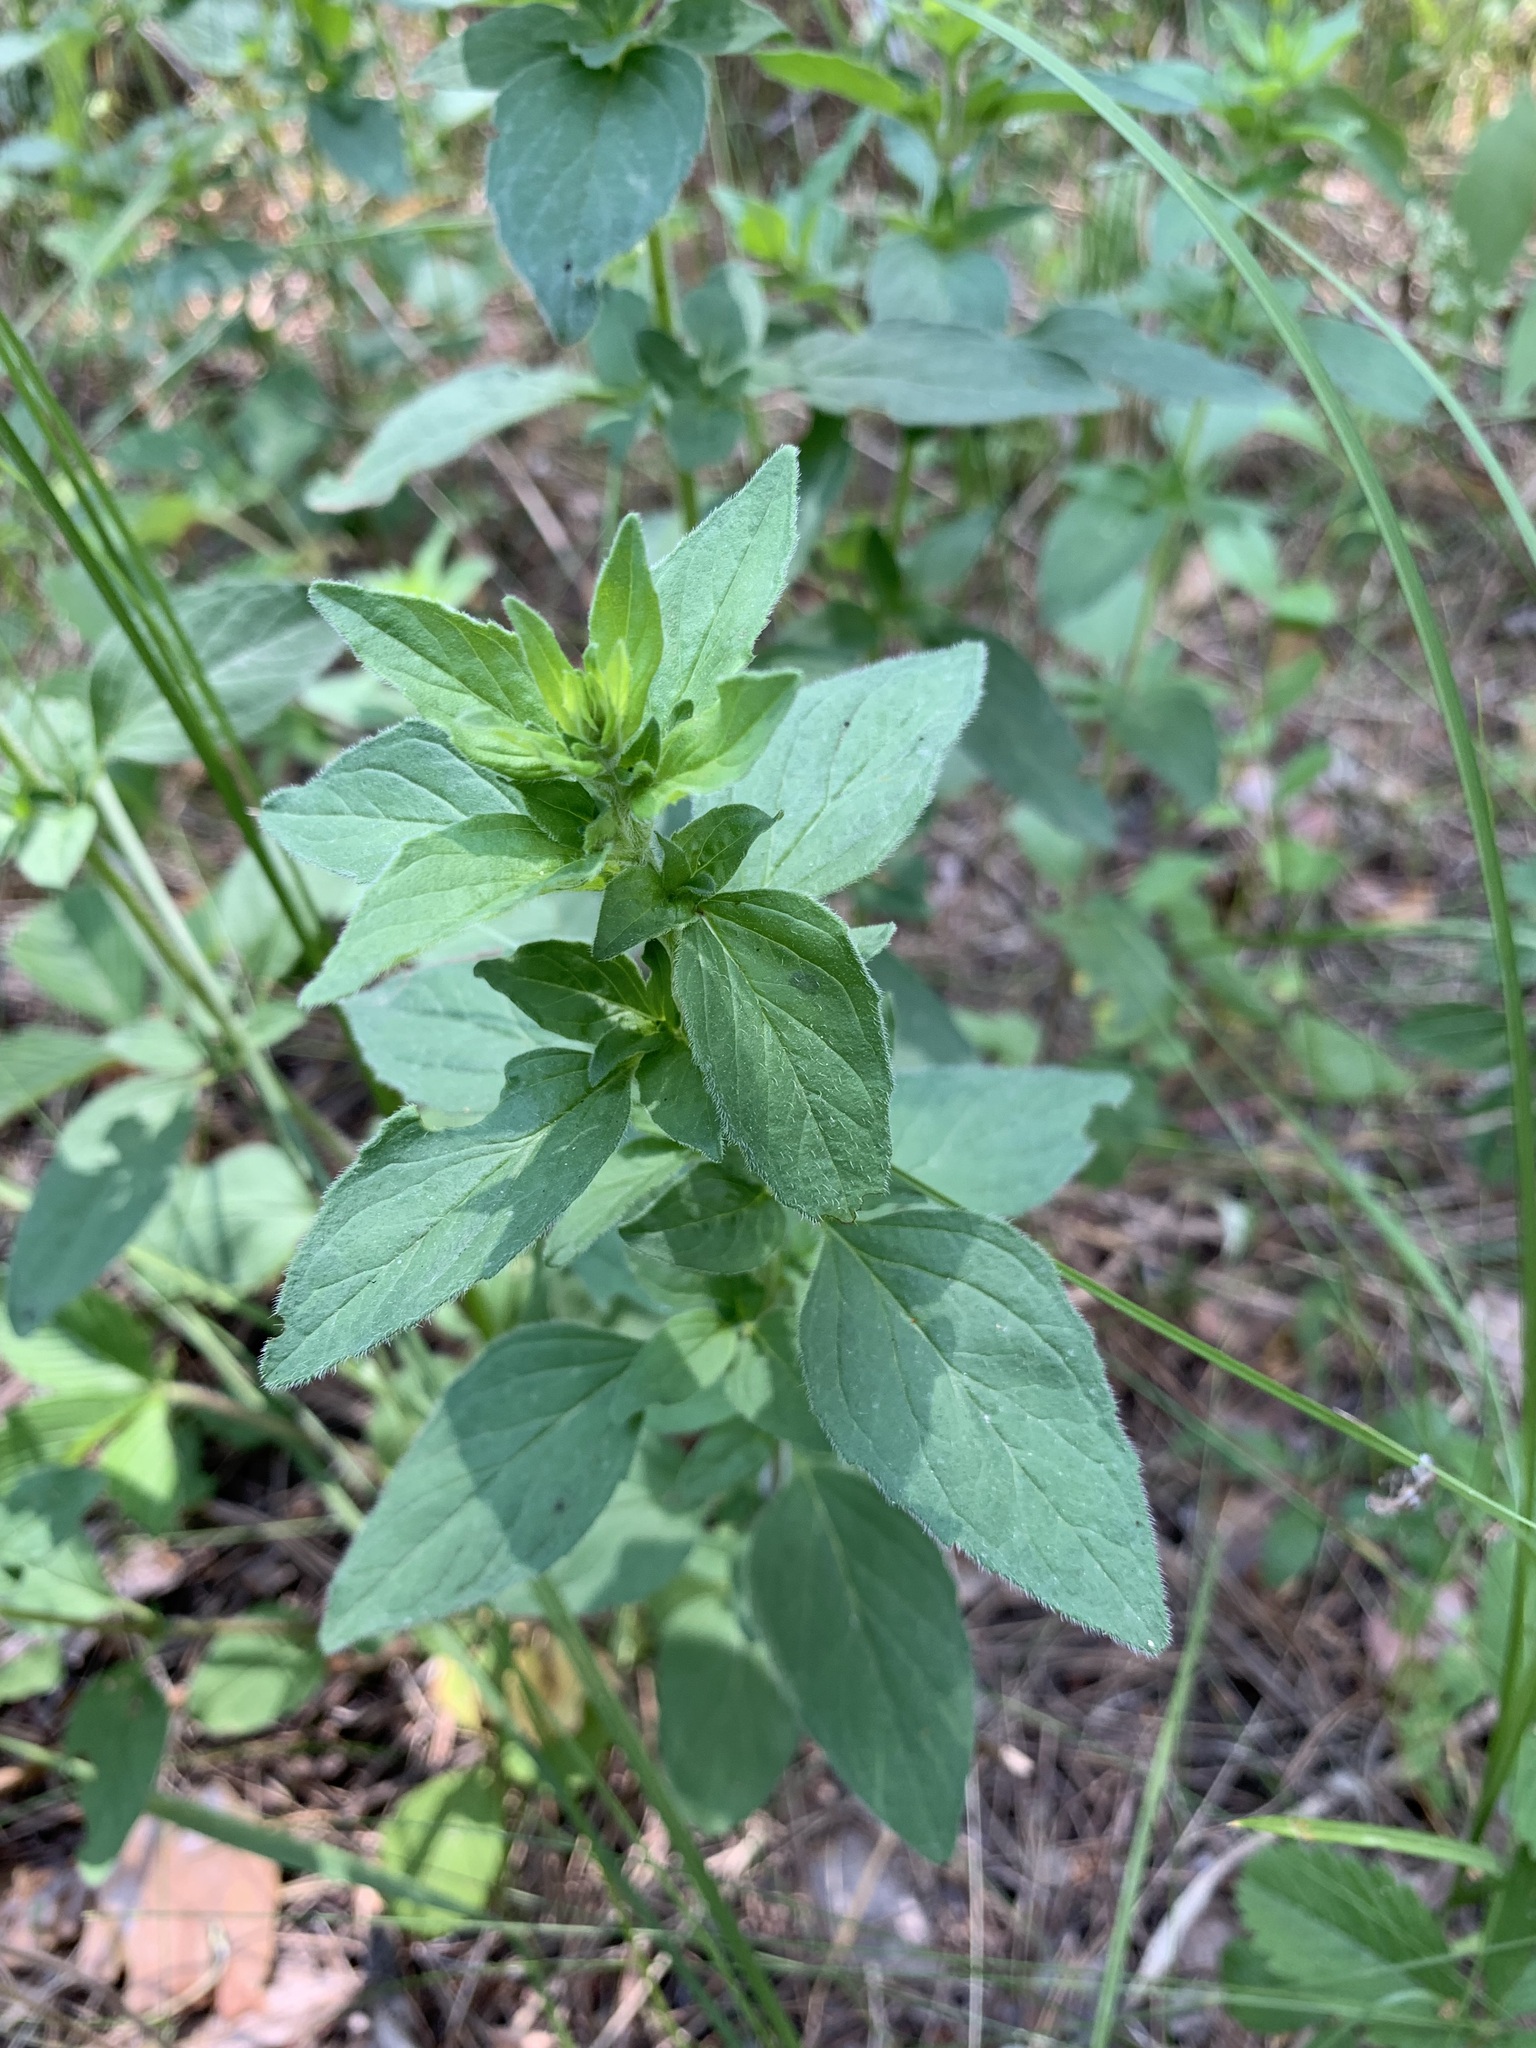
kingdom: Plantae
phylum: Tracheophyta
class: Magnoliopsida
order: Lamiales
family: Lamiaceae
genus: Origanum
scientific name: Origanum vulgare
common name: Wild marjoram
